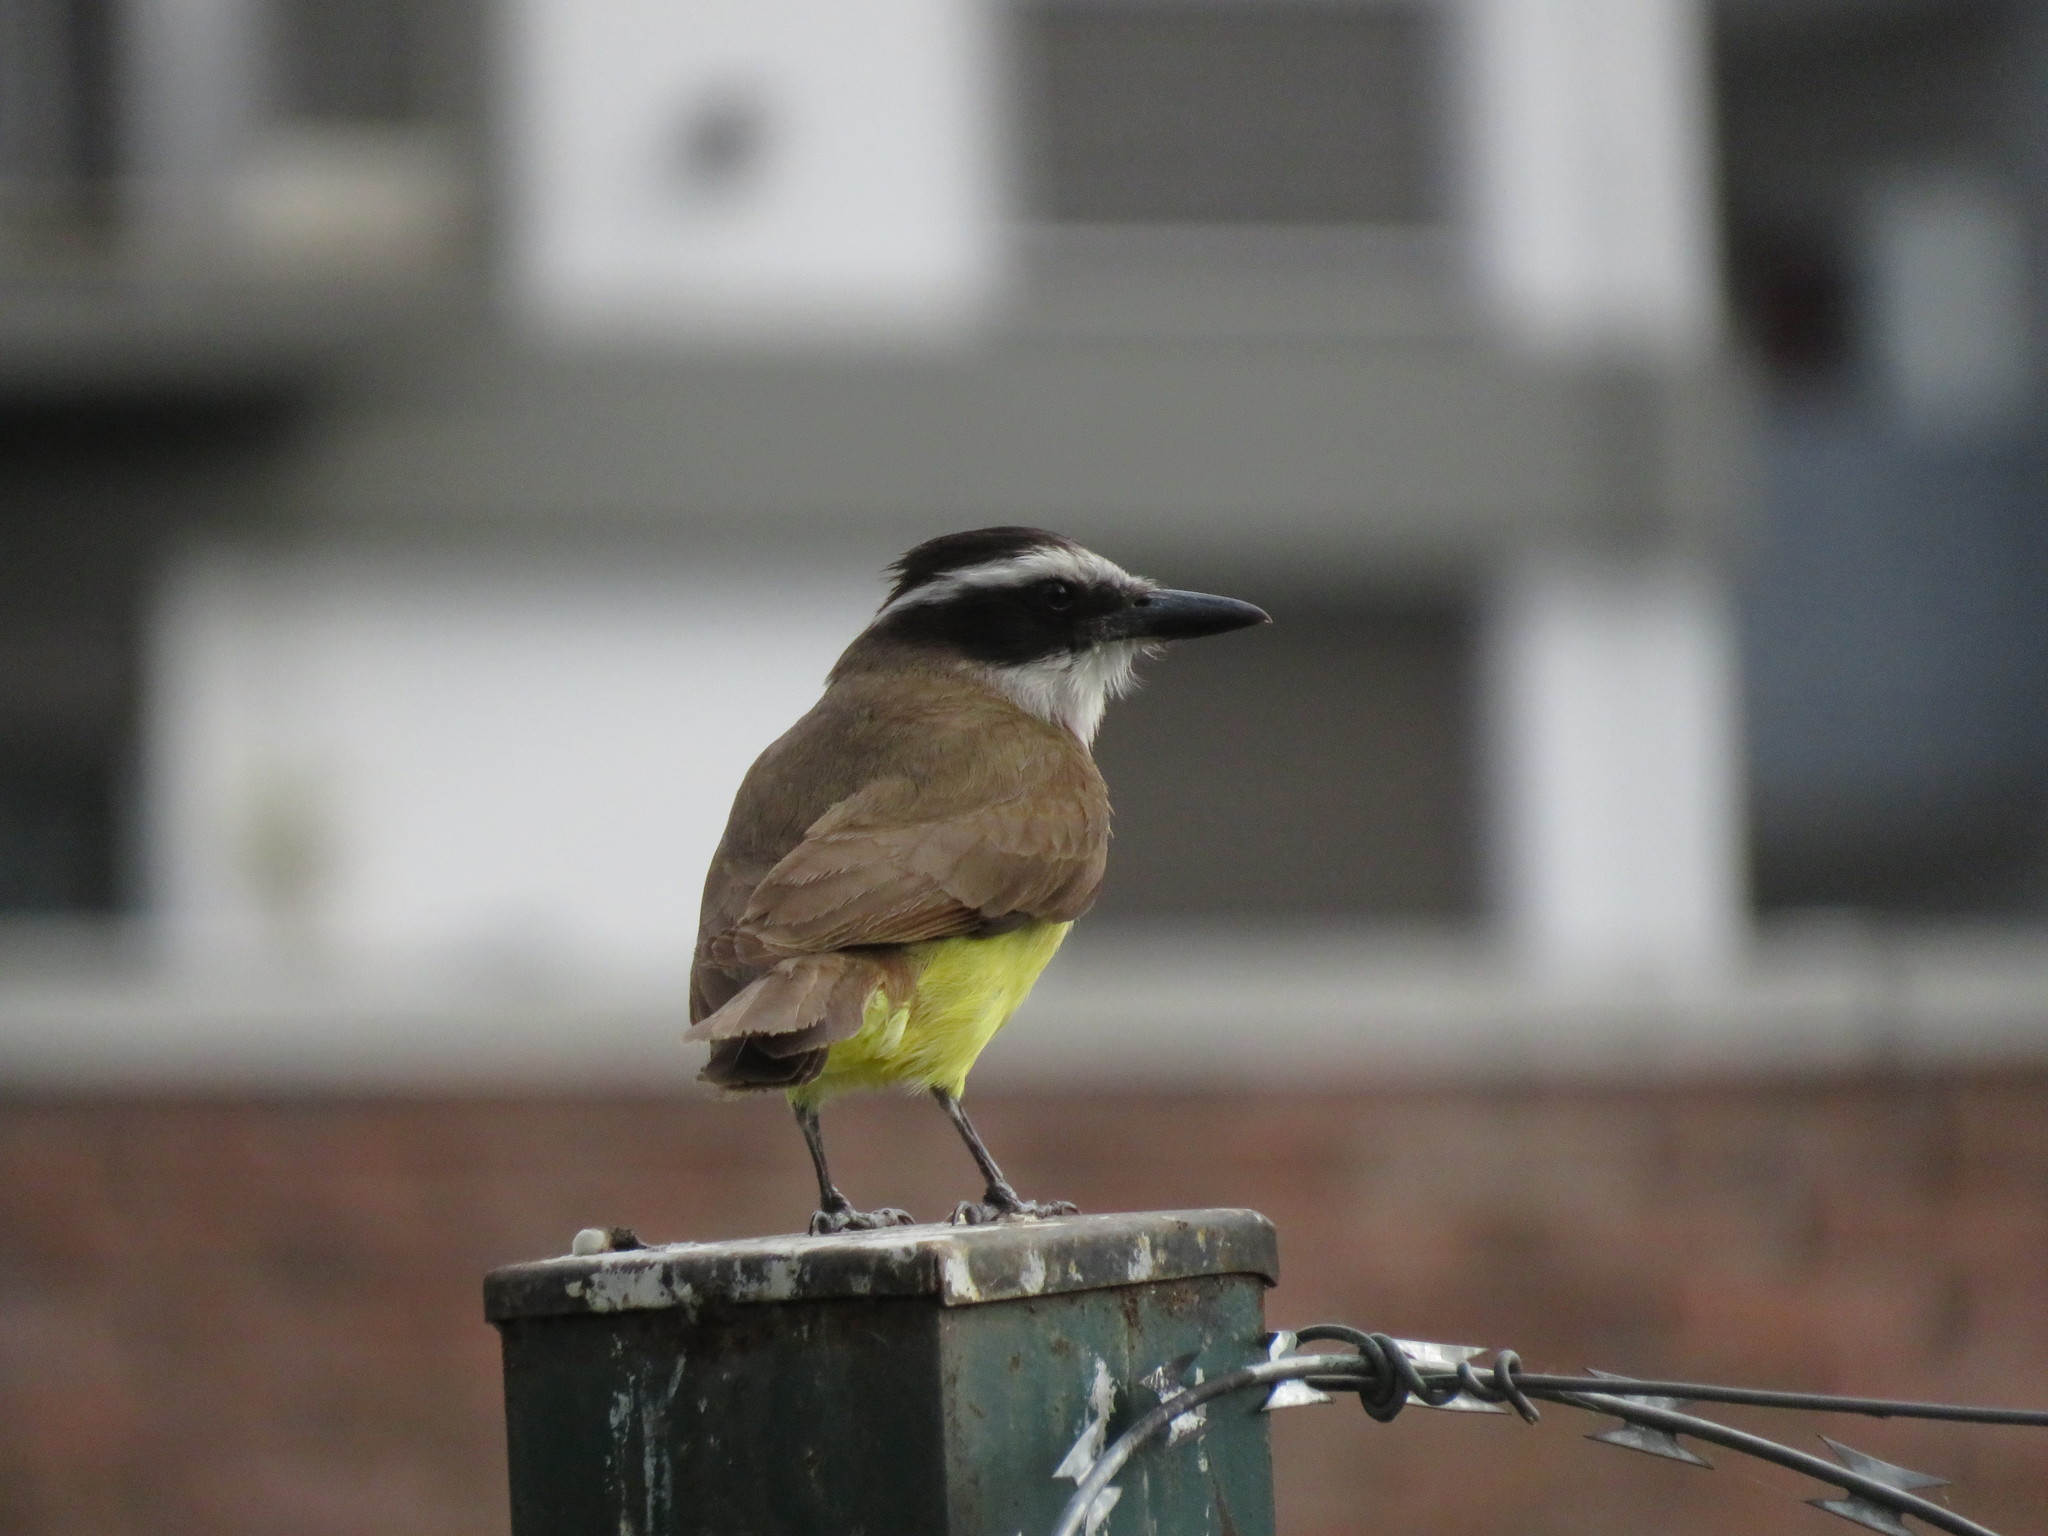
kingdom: Animalia
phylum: Chordata
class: Aves
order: Passeriformes
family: Tyrannidae
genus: Pitangus
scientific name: Pitangus sulphuratus
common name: Great kiskadee
